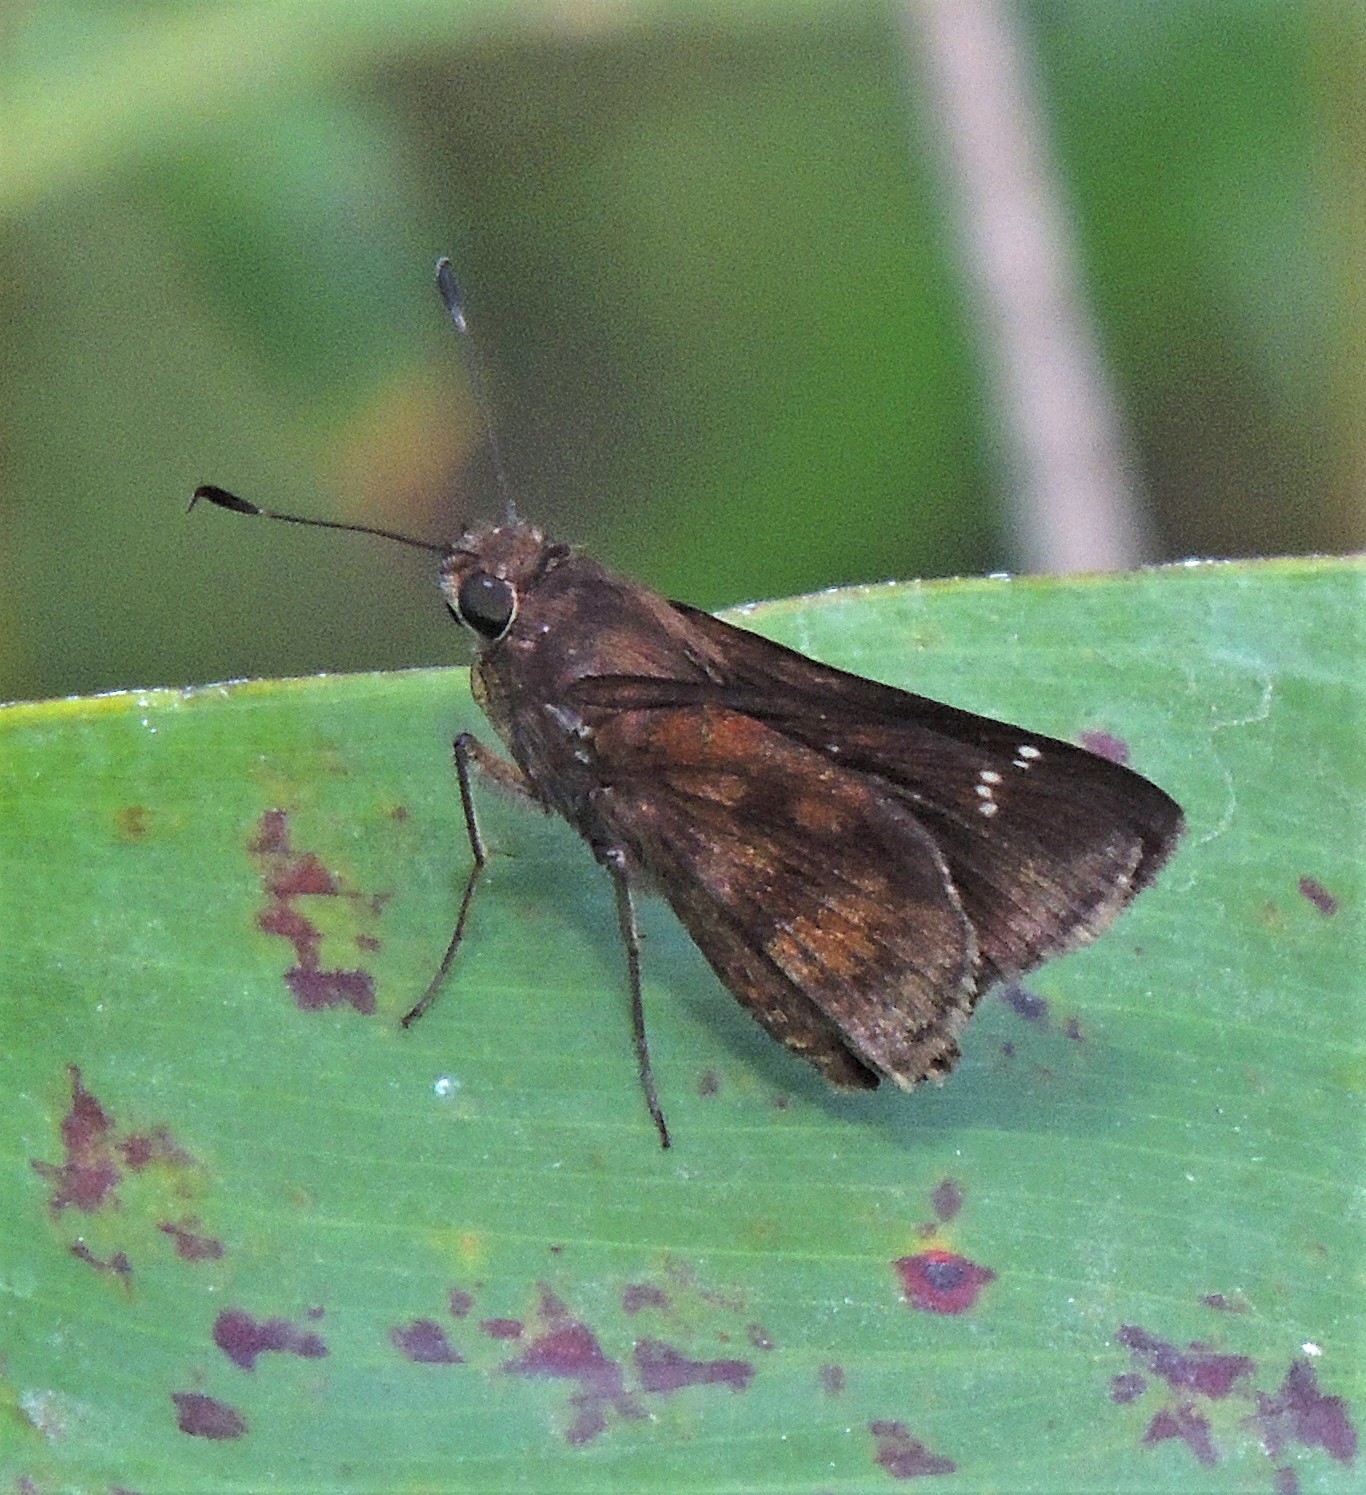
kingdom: Animalia
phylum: Arthropoda
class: Insecta
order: Lepidoptera
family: Hesperiidae
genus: Quinta
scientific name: Quinta cannae
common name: Canna skipper
